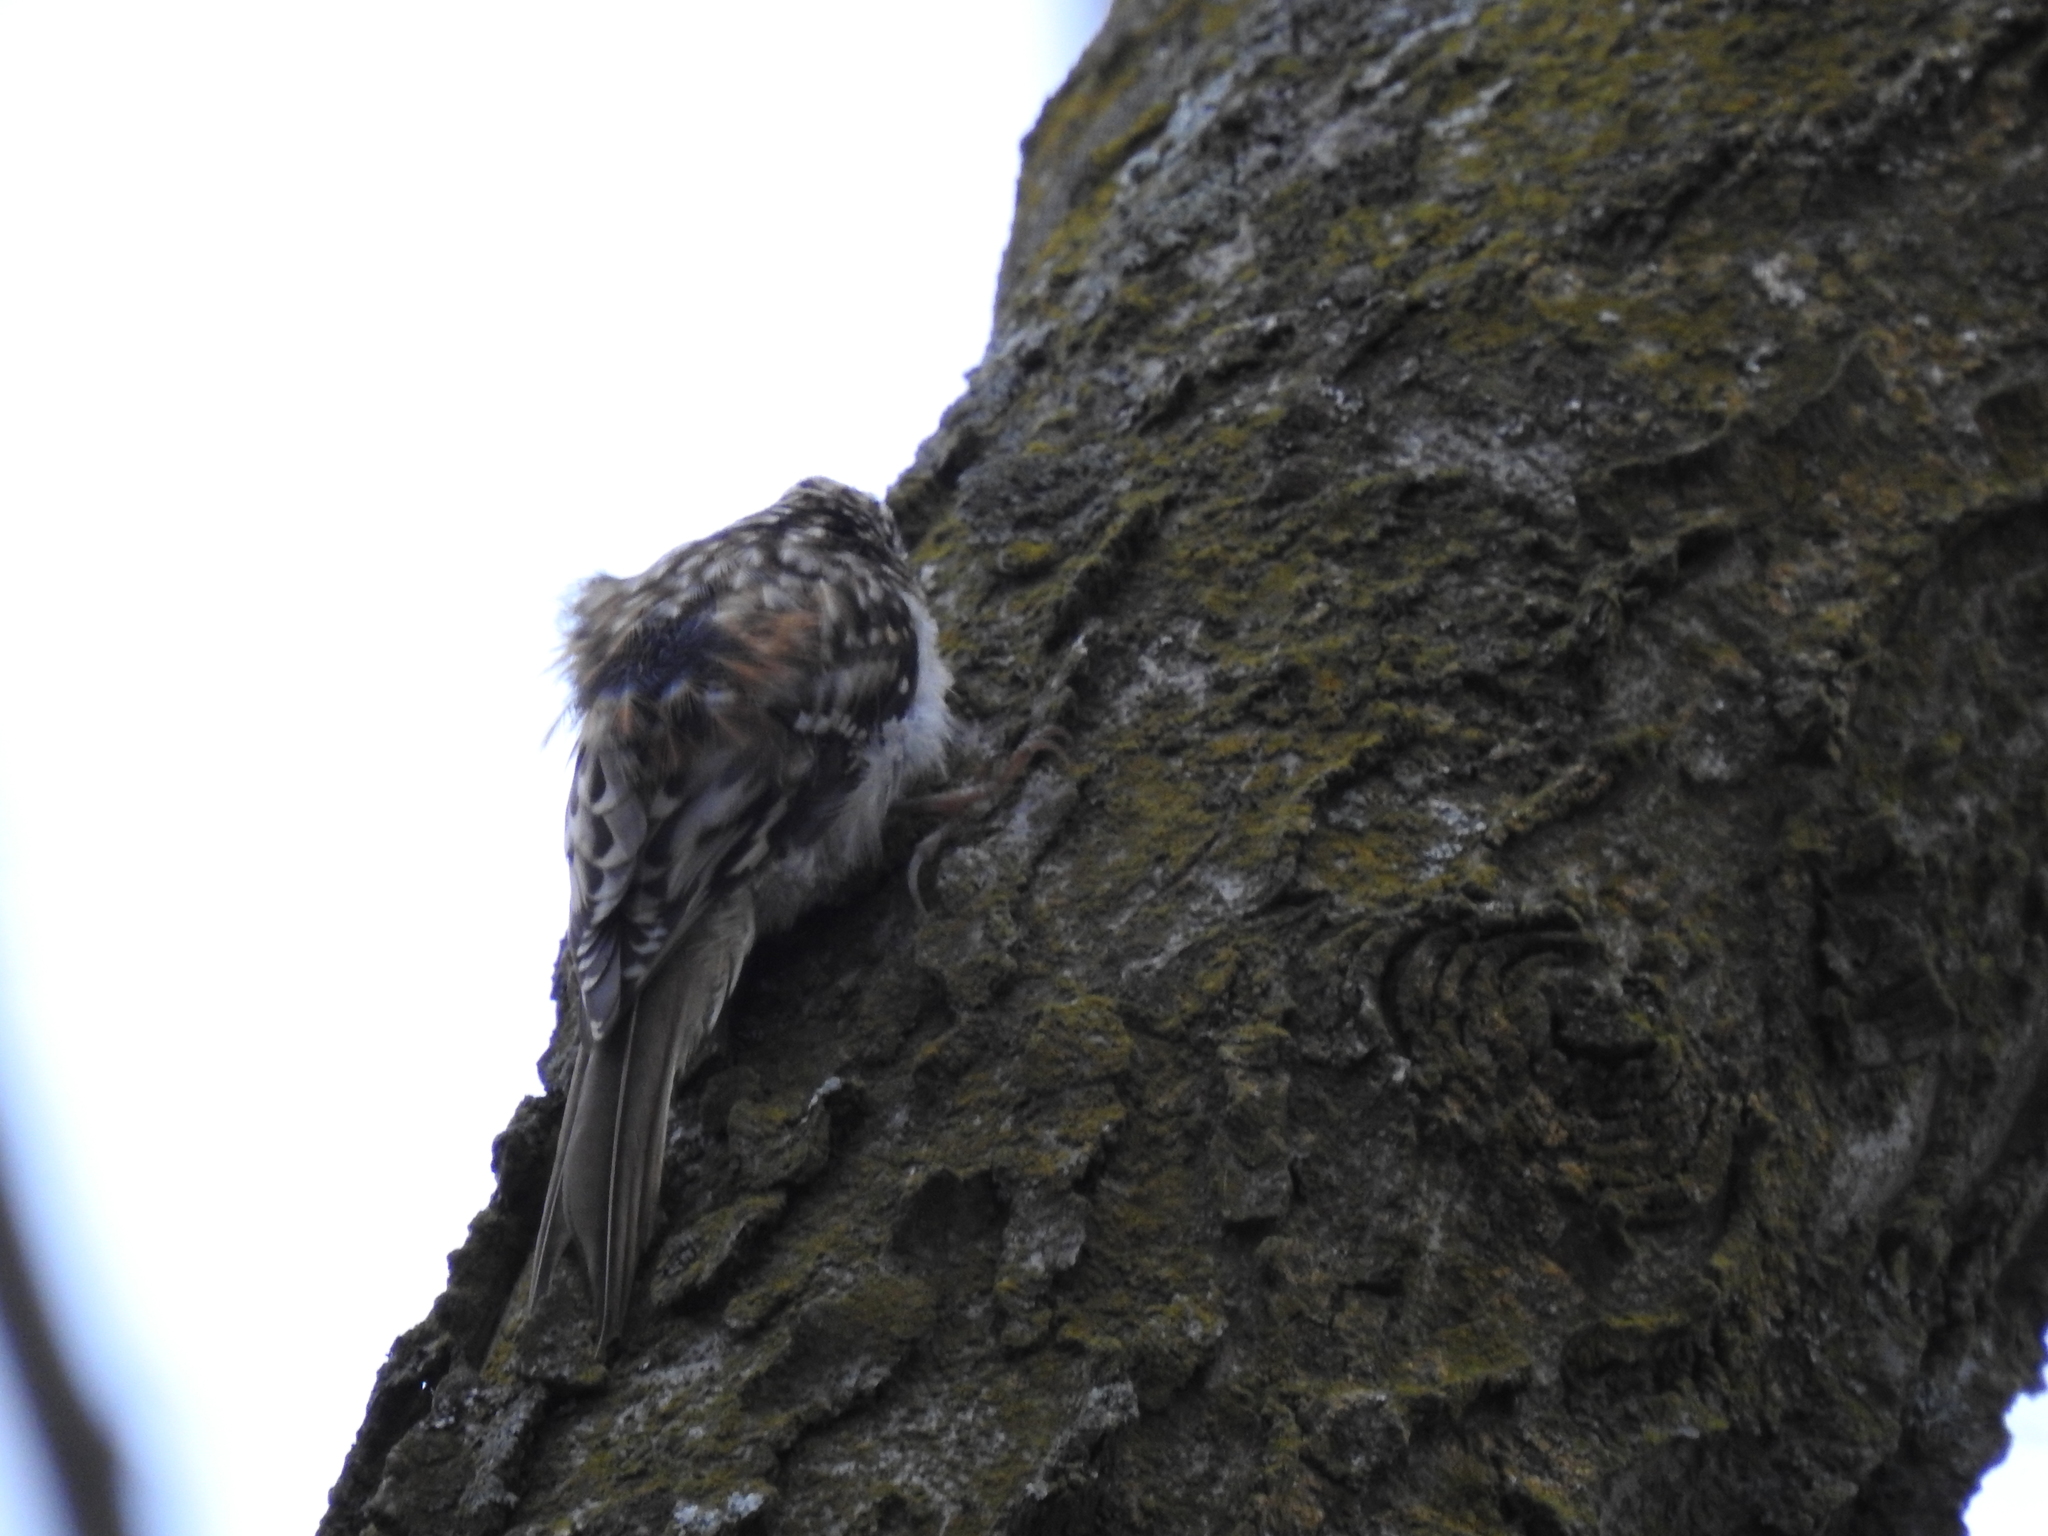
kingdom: Animalia
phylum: Chordata
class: Aves
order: Passeriformes
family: Certhiidae
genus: Certhia
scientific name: Certhia americana
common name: Brown creeper
